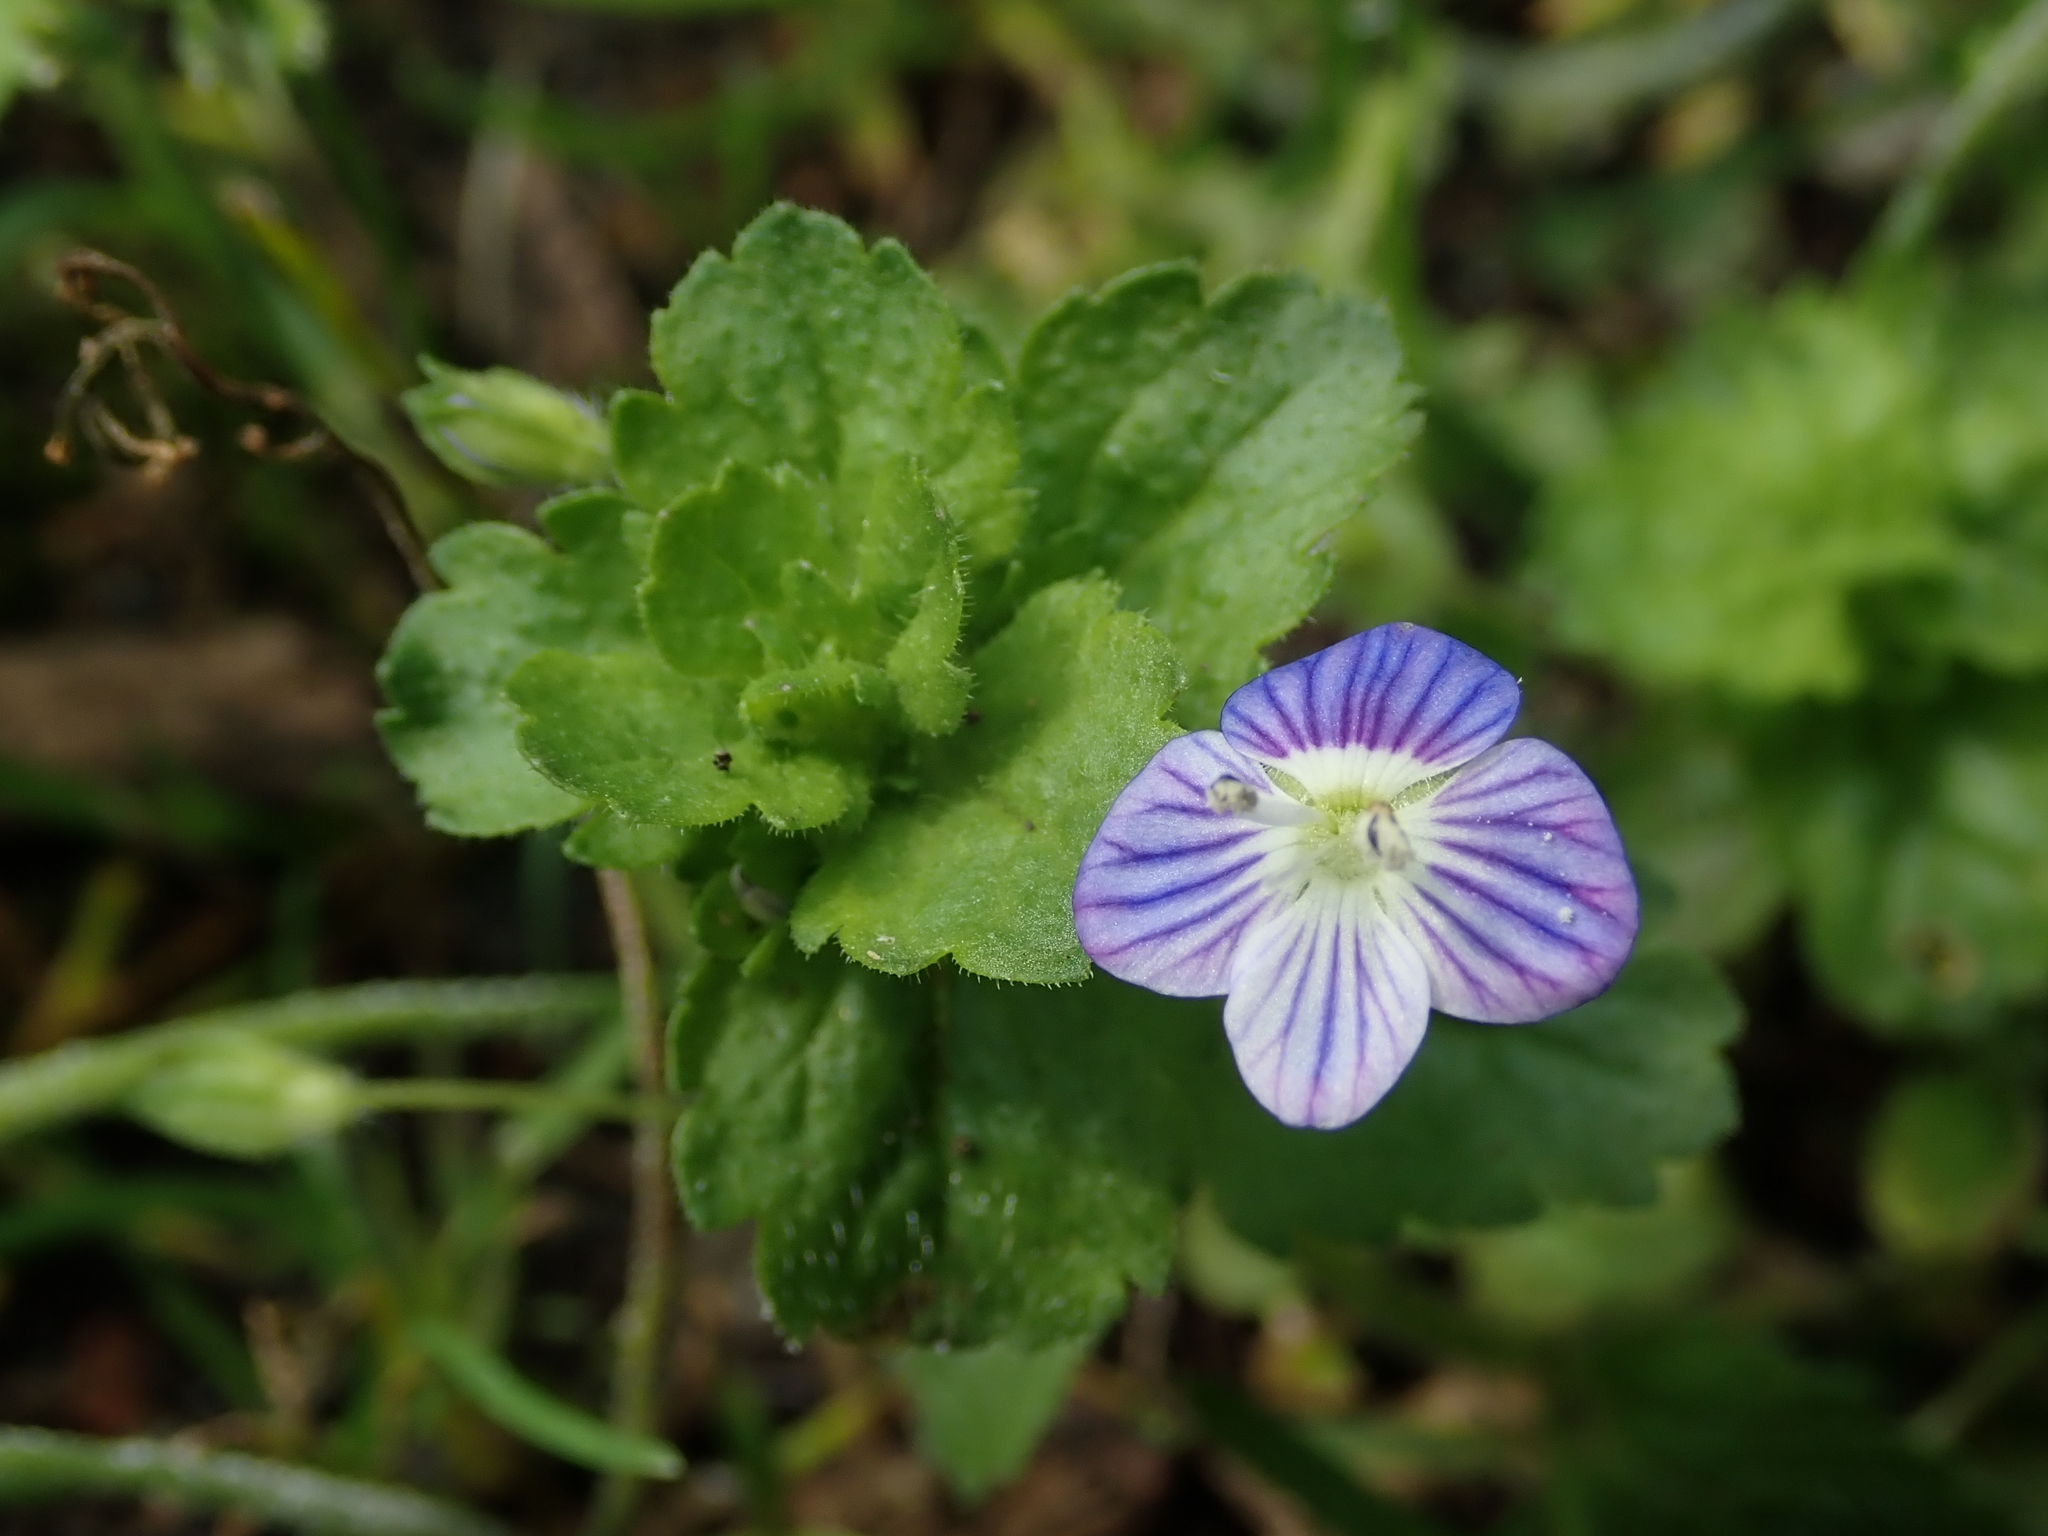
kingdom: Plantae
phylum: Tracheophyta
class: Magnoliopsida
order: Lamiales
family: Plantaginaceae
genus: Veronica
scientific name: Veronica persica
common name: Common field-speedwell
